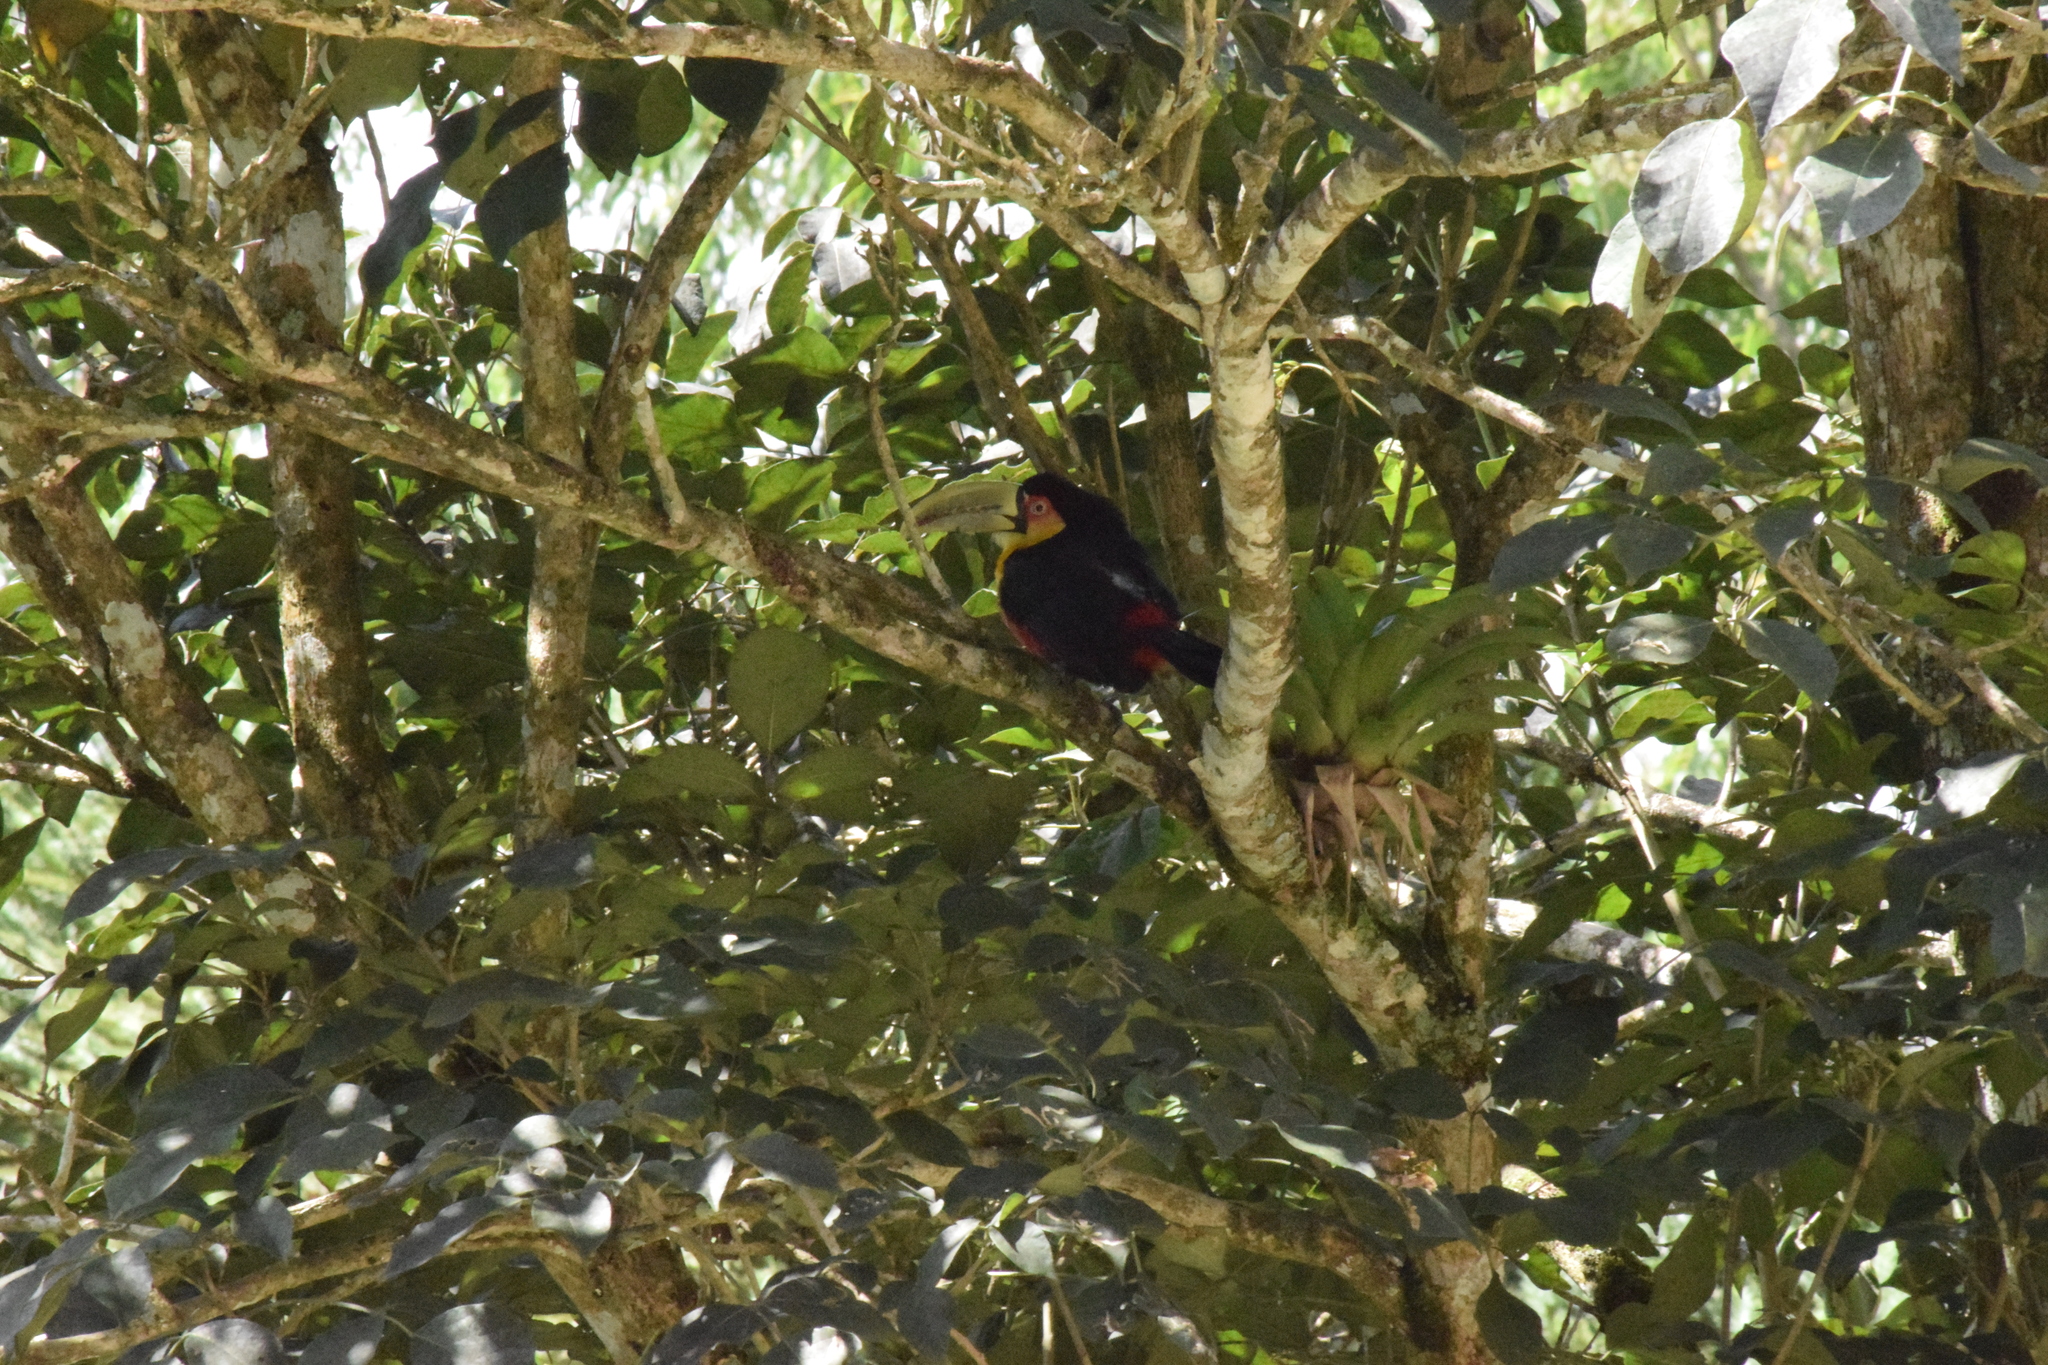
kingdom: Animalia
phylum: Chordata
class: Aves
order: Piciformes
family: Ramphastidae
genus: Ramphastos
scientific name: Ramphastos dicolorus
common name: Green-billed toucan
